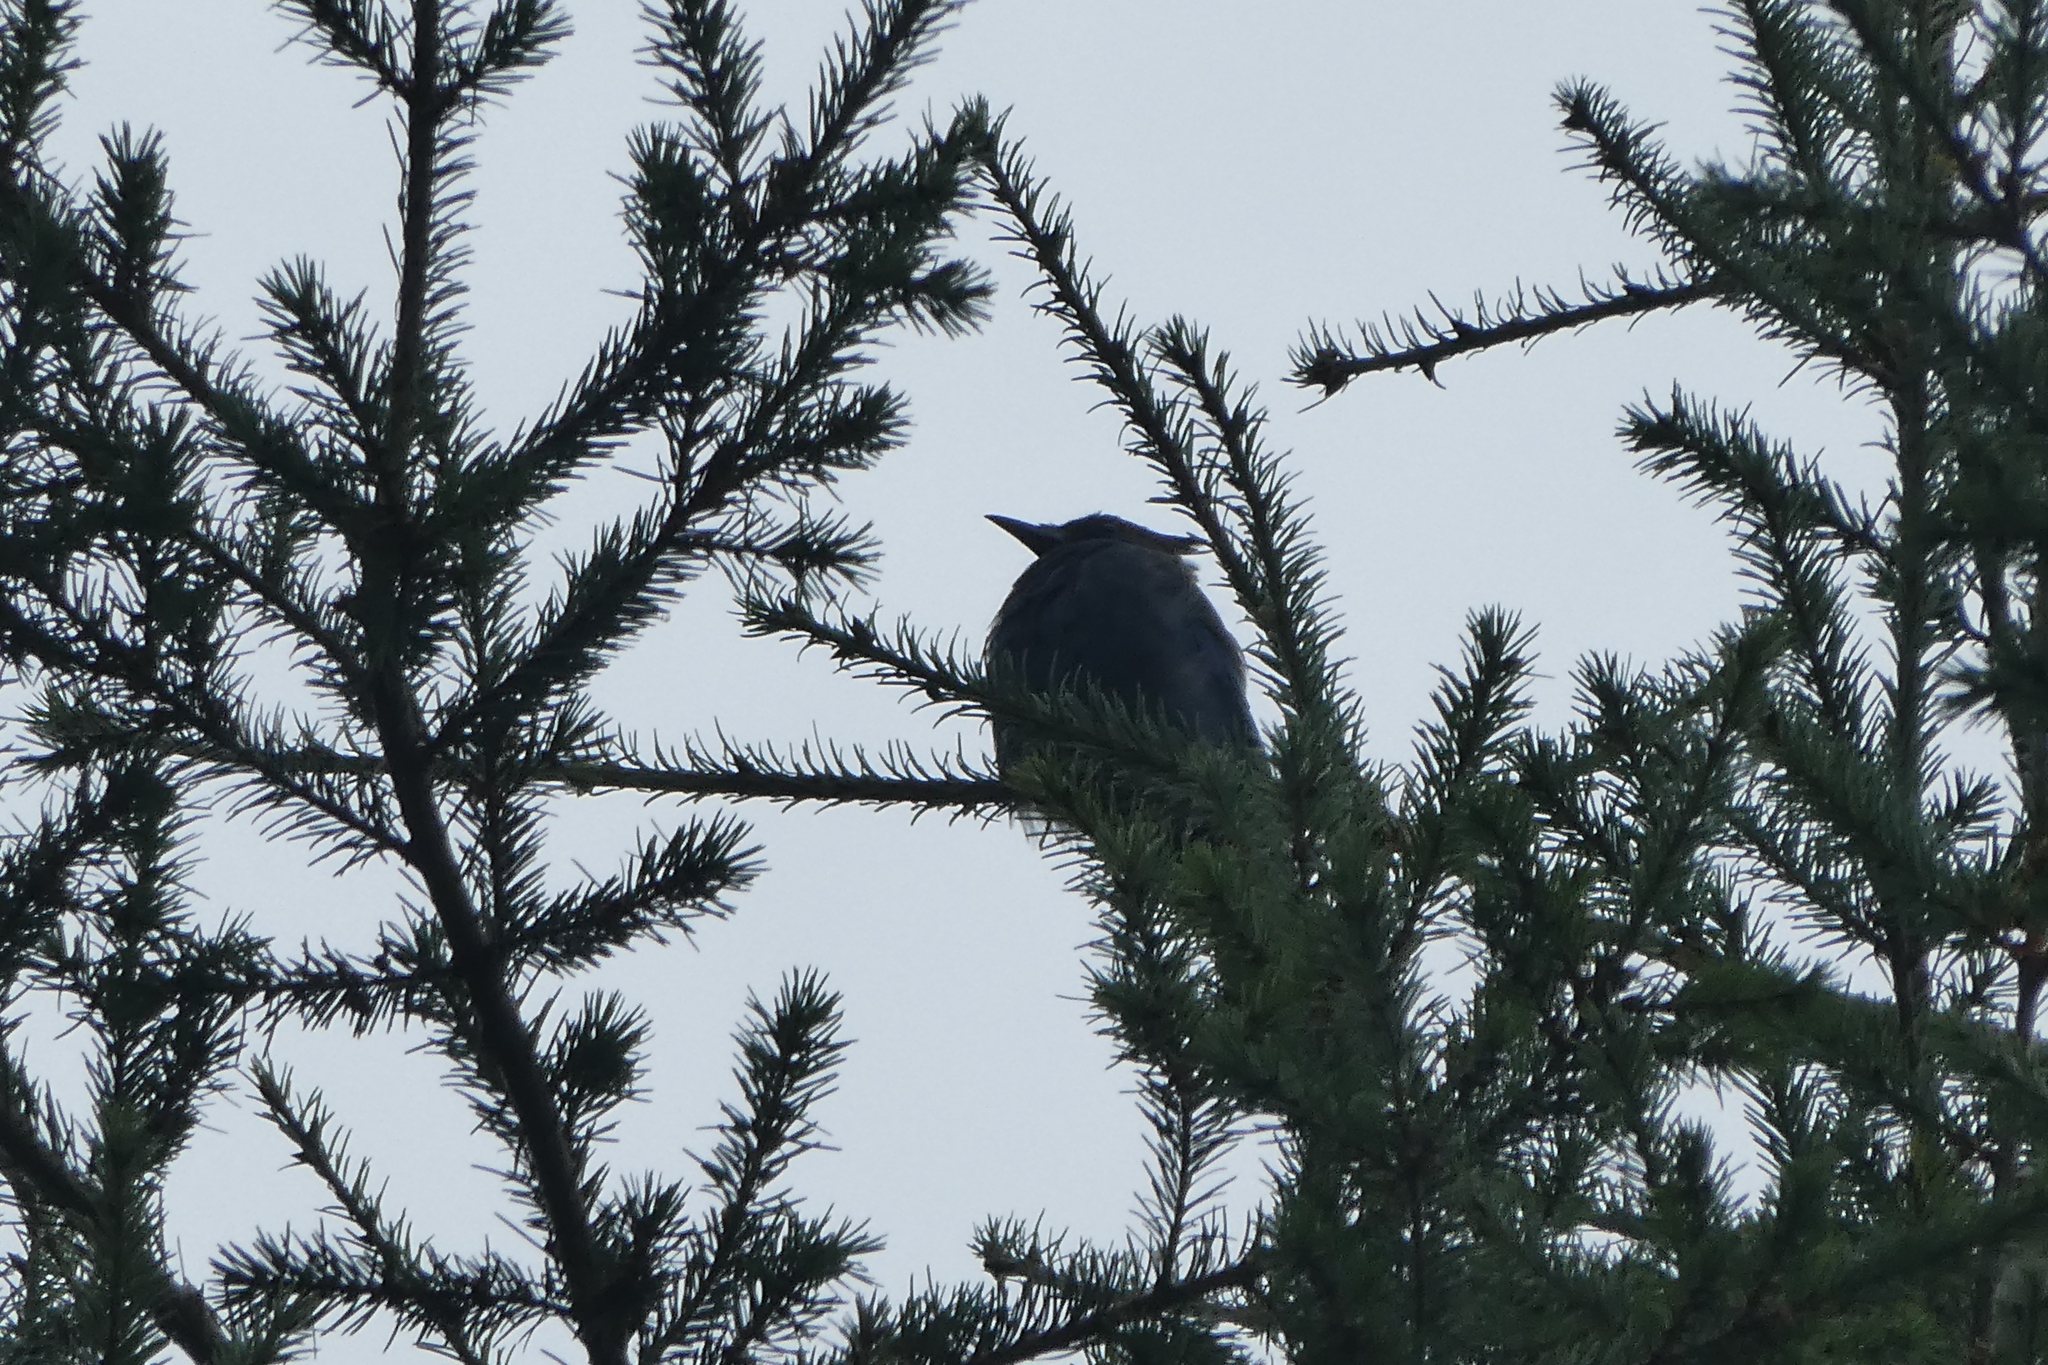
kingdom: Animalia
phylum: Chordata
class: Aves
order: Passeriformes
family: Corvidae
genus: Cyanocitta
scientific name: Cyanocitta stelleri
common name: Steller's jay
